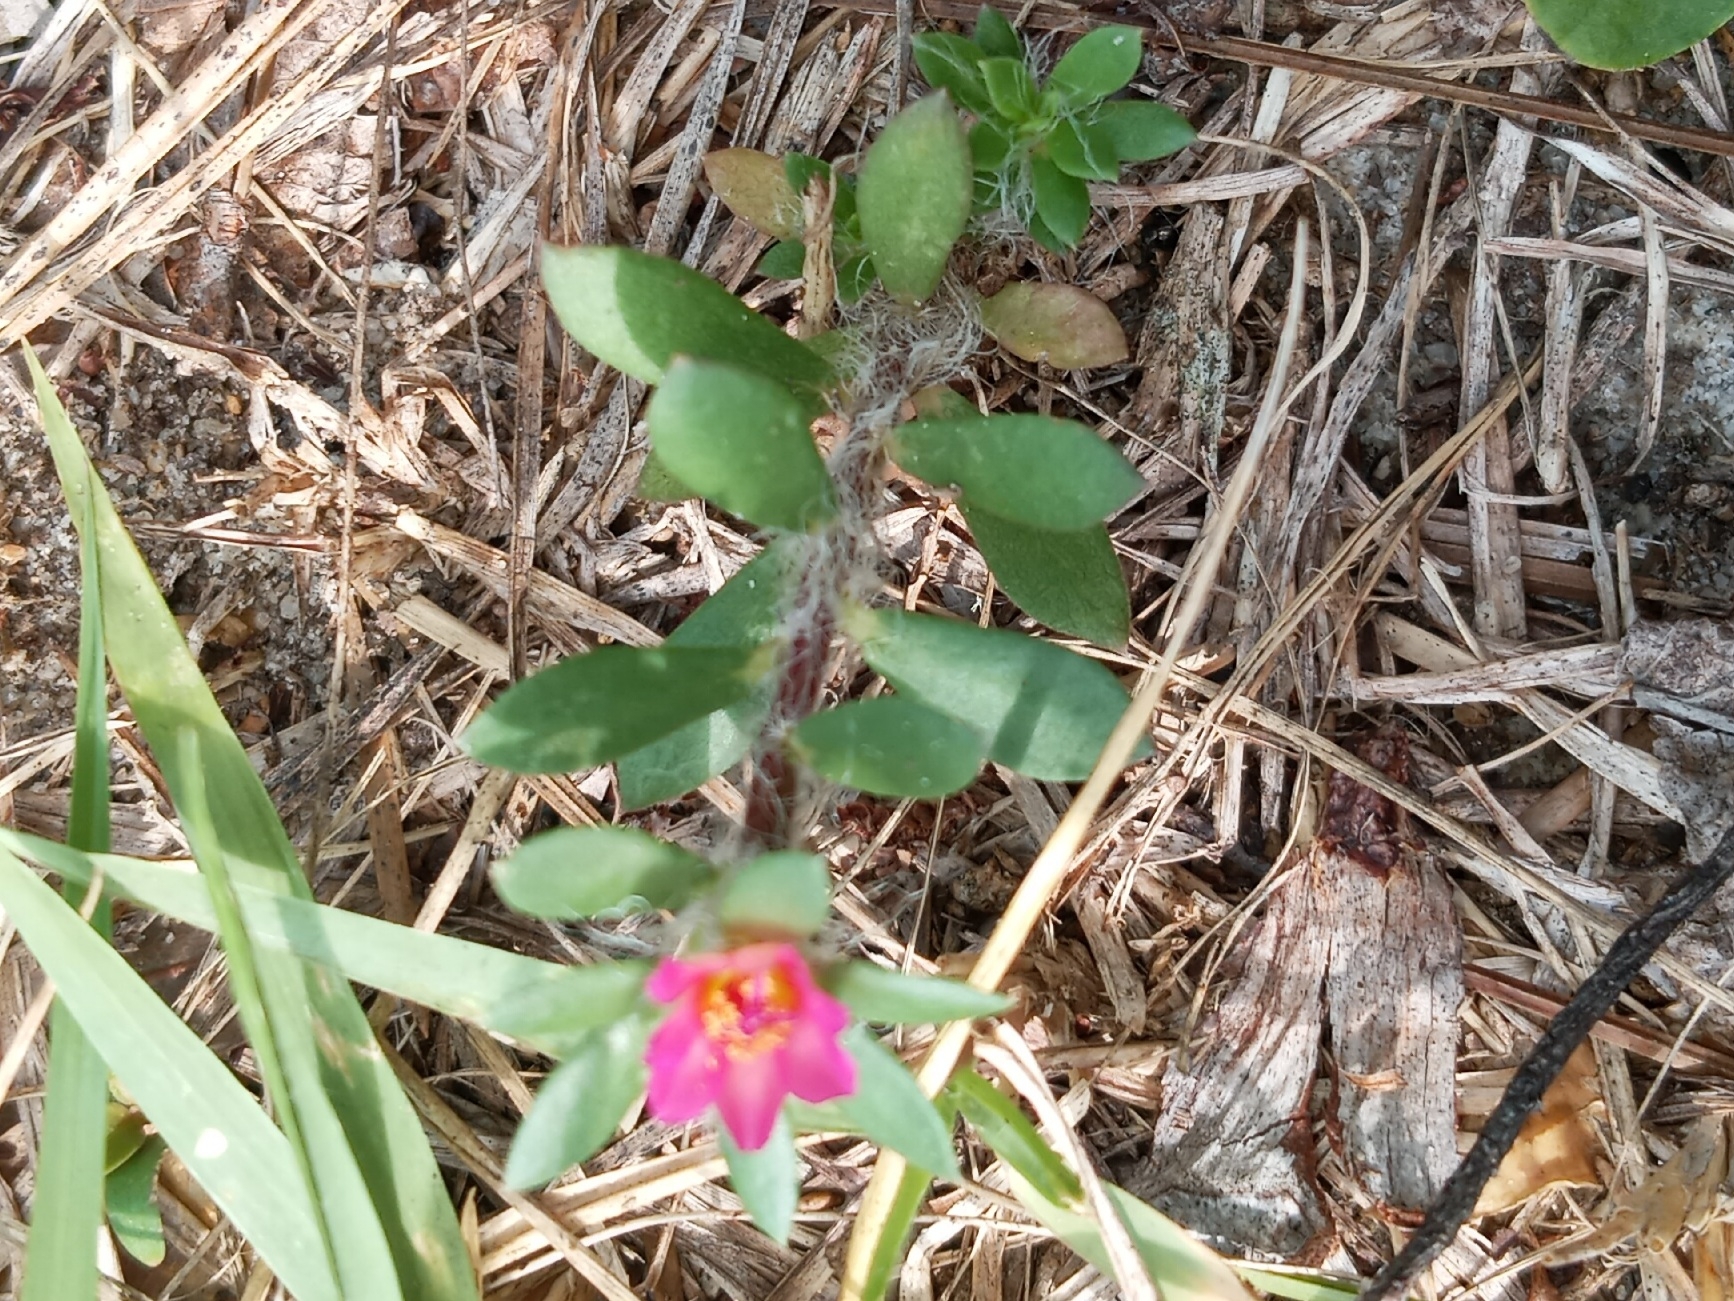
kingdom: Plantae
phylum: Tracheophyta
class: Magnoliopsida
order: Caryophyllales
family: Portulacaceae
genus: Portulaca
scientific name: Portulaca amilis
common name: Paraguayan purslane
